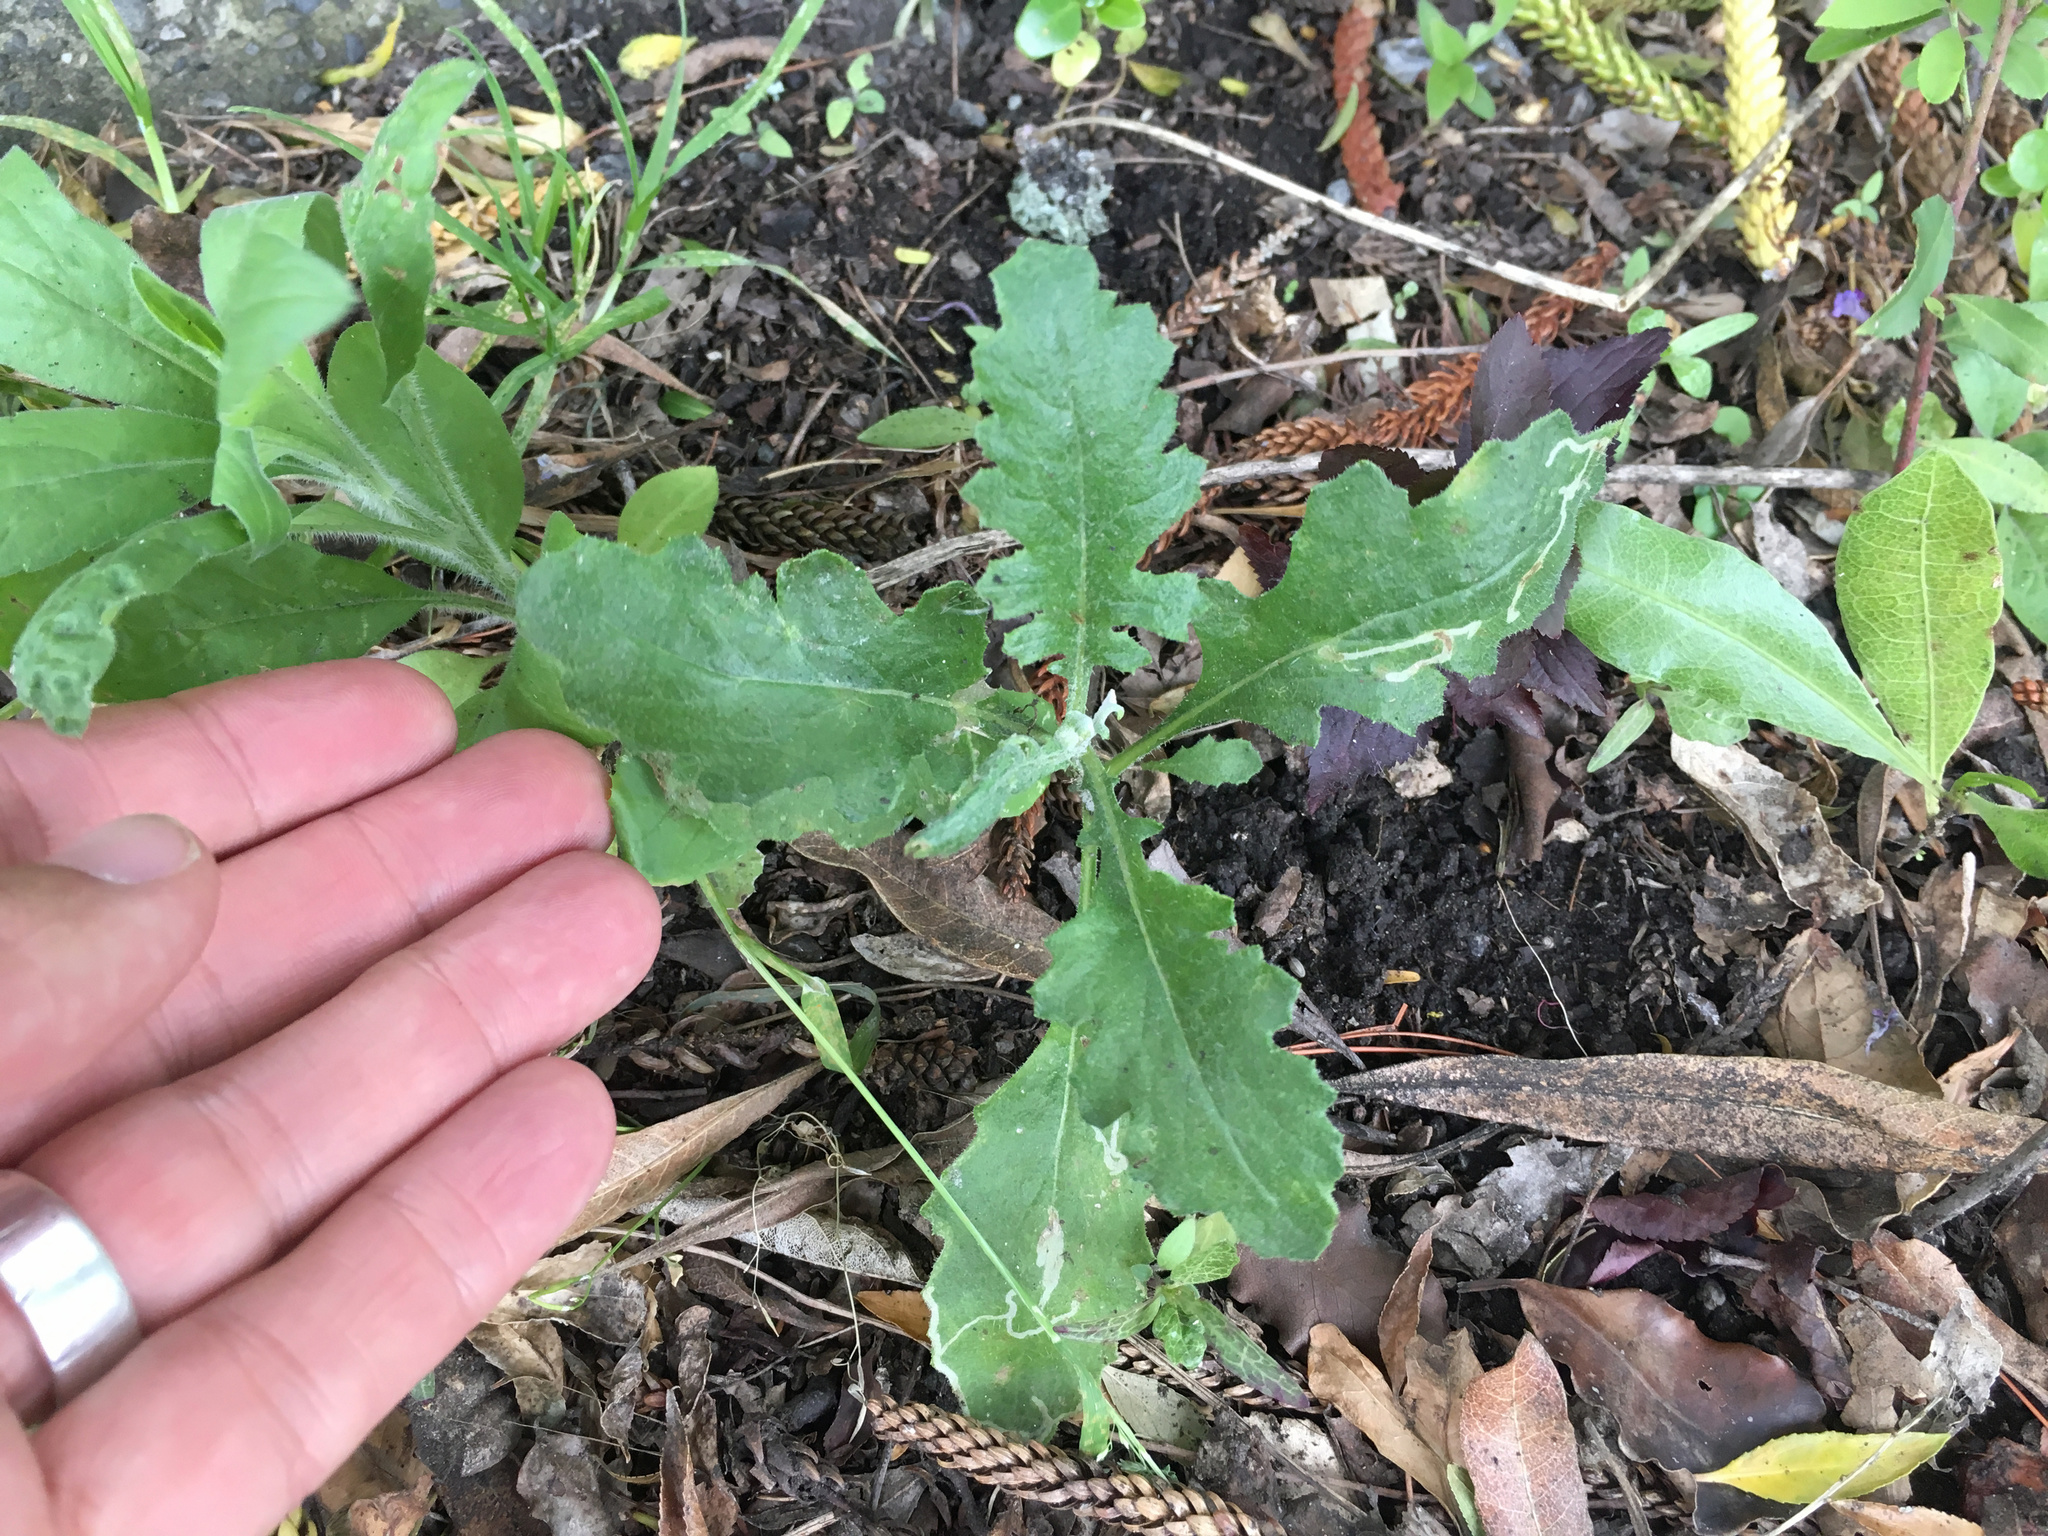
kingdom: Plantae
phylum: Tracheophyta
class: Magnoliopsida
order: Asterales
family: Asteraceae
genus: Senecio
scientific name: Senecio vulgaris
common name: Old-man-in-the-spring
